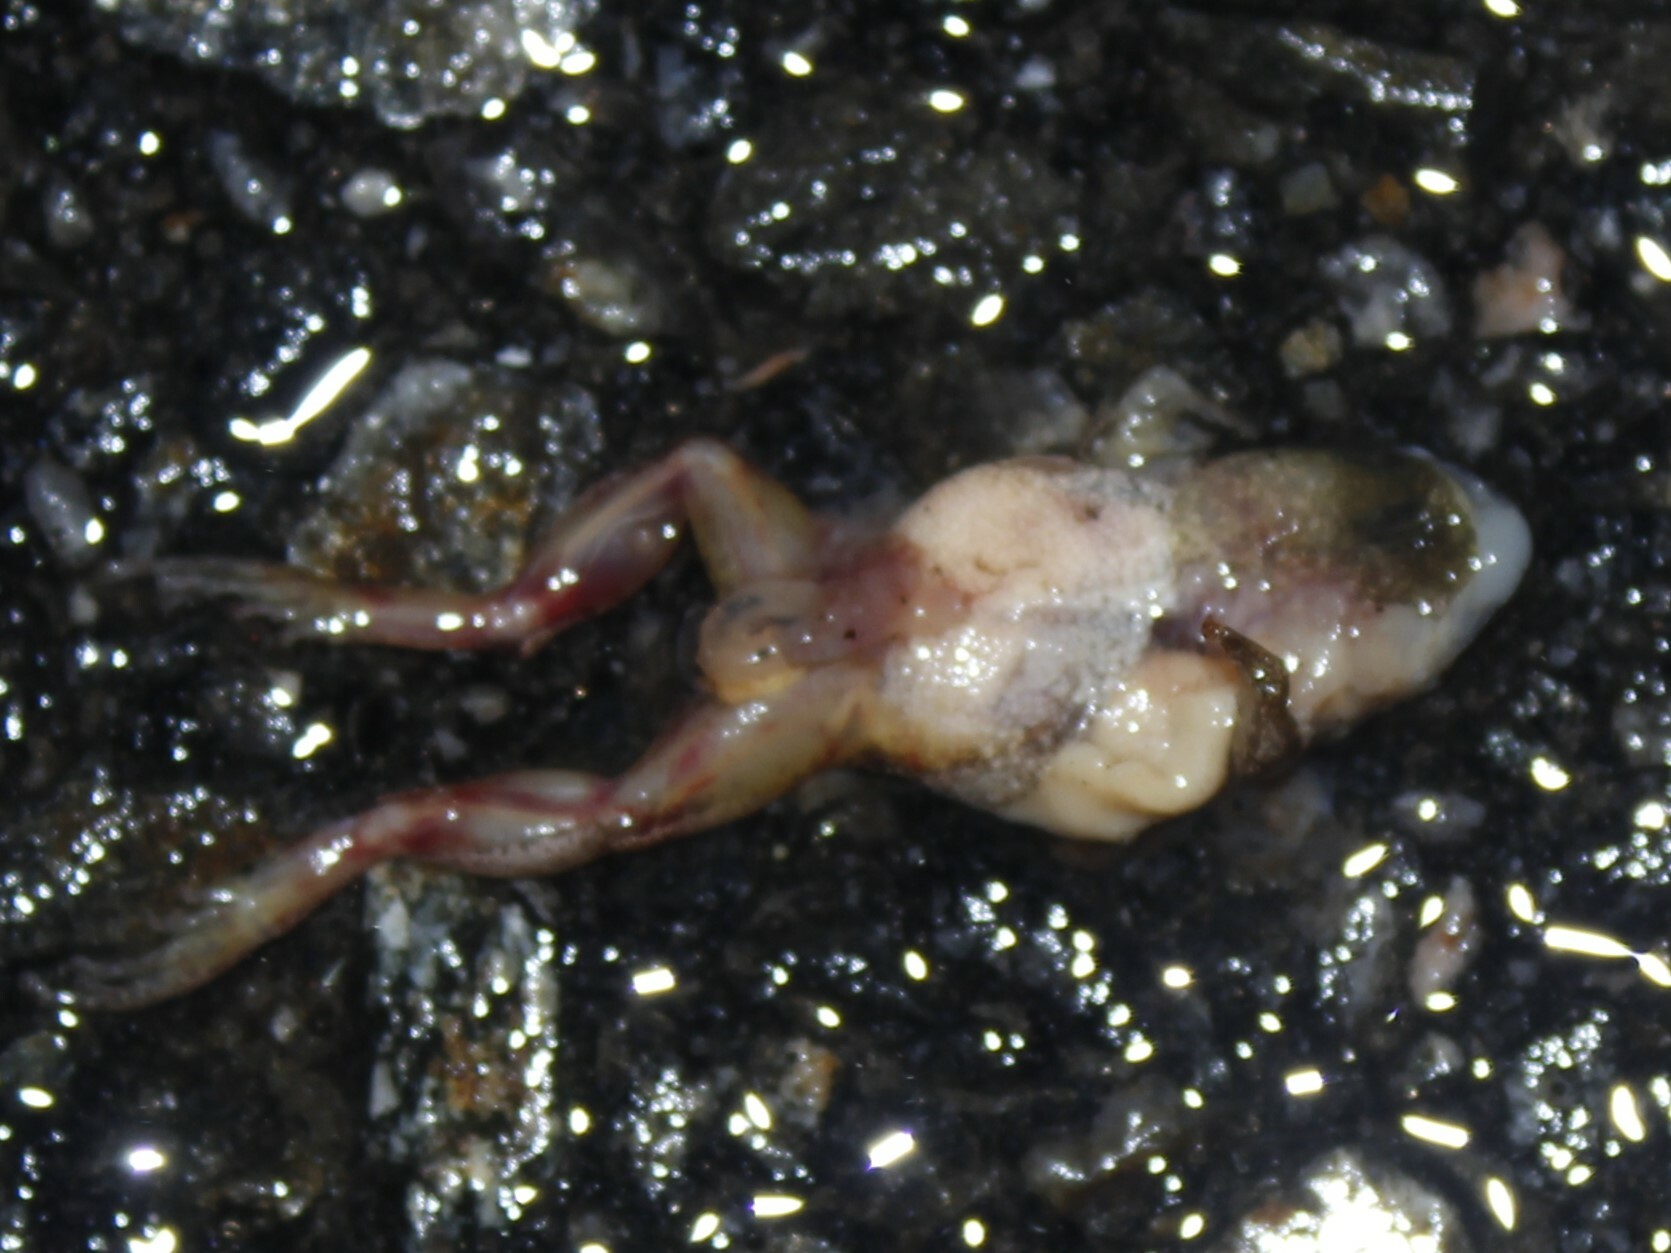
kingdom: Animalia
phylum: Chordata
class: Amphibia
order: Anura
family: Hylidae
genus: Pseudacris
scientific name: Pseudacris crucifer
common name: Spring peeper
